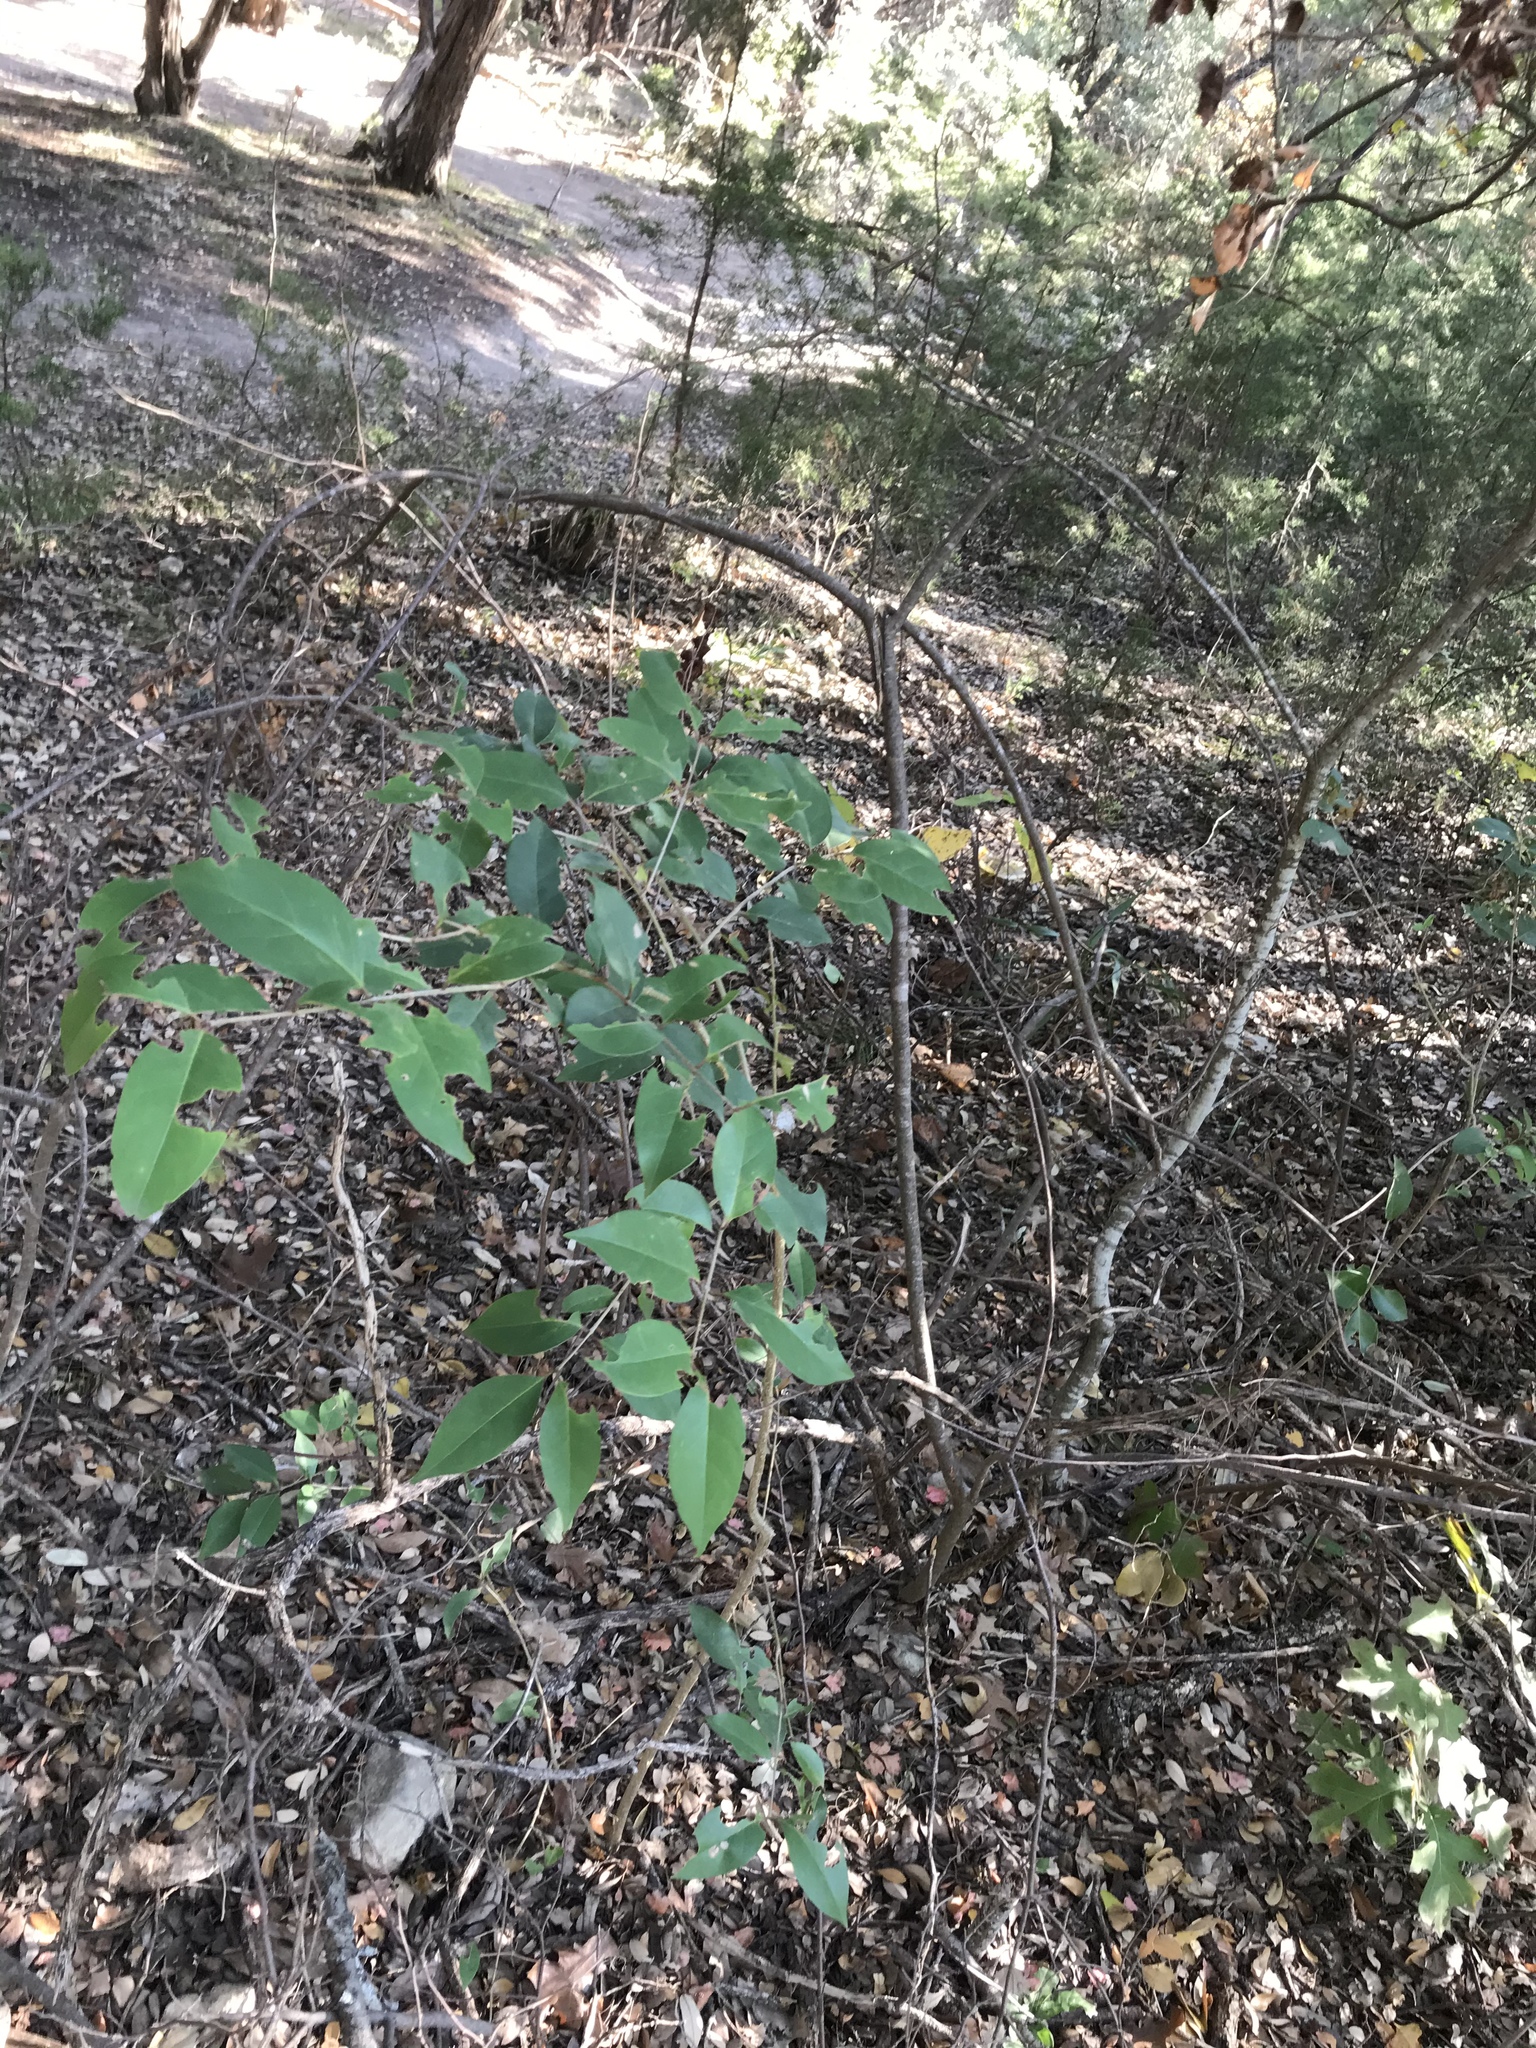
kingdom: Plantae
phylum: Tracheophyta
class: Magnoliopsida
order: Lamiales
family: Oleaceae
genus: Ligustrum
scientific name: Ligustrum lucidum
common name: Glossy privet
